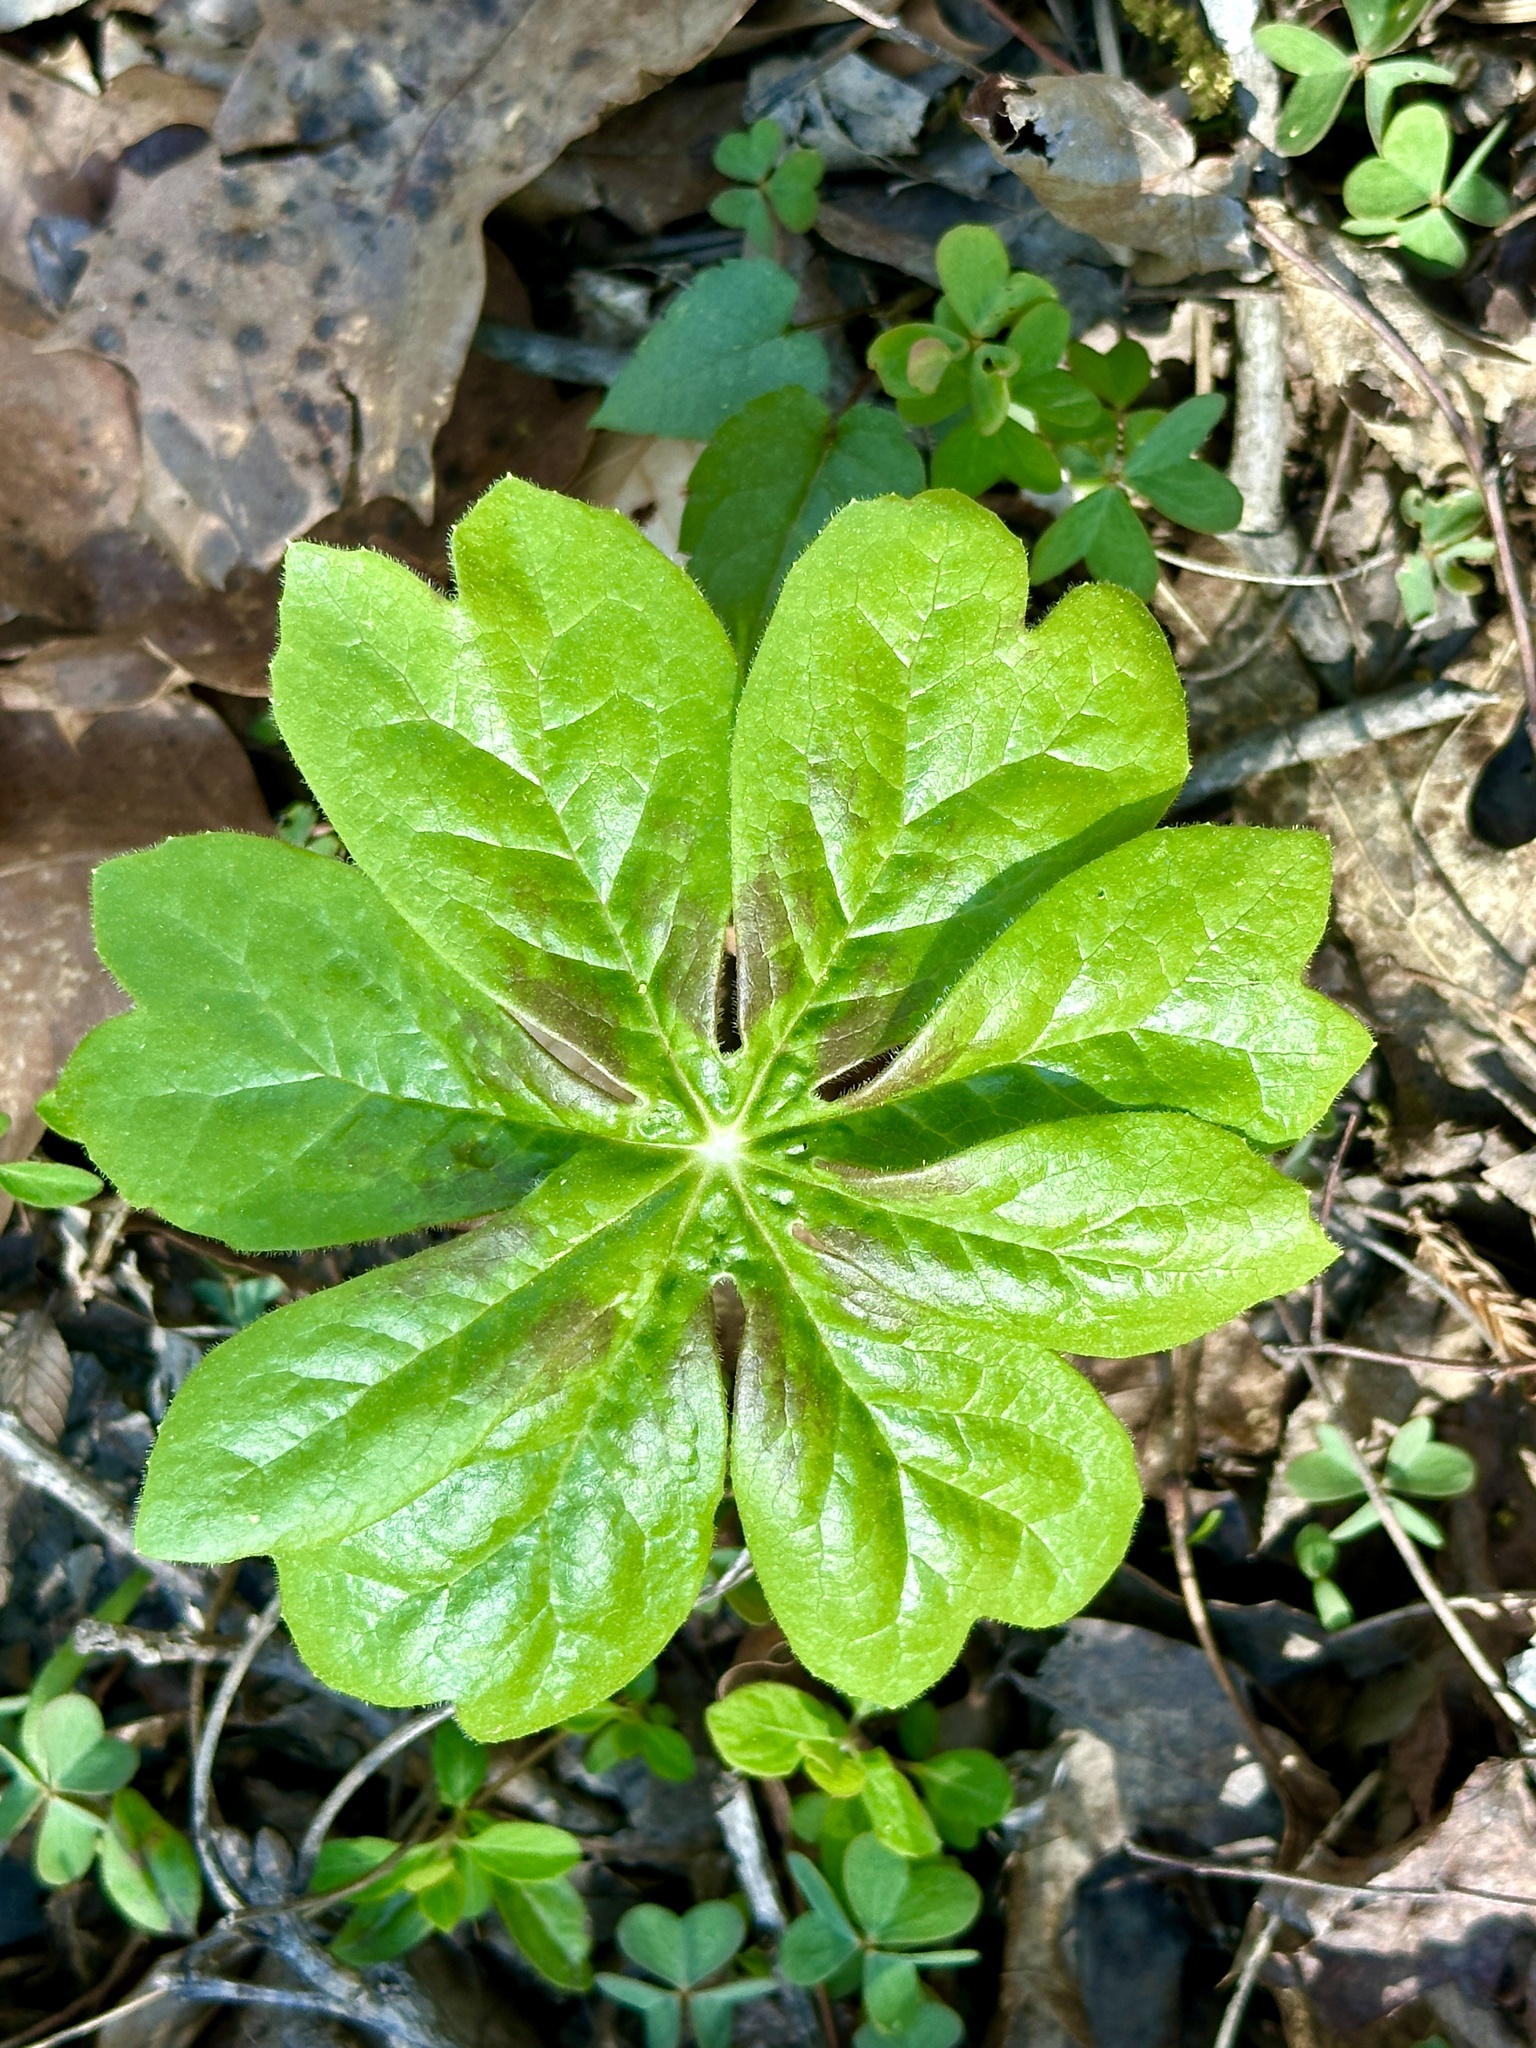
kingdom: Plantae
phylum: Tracheophyta
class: Magnoliopsida
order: Ranunculales
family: Berberidaceae
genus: Podophyllum
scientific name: Podophyllum peltatum
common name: Wild mandrake
